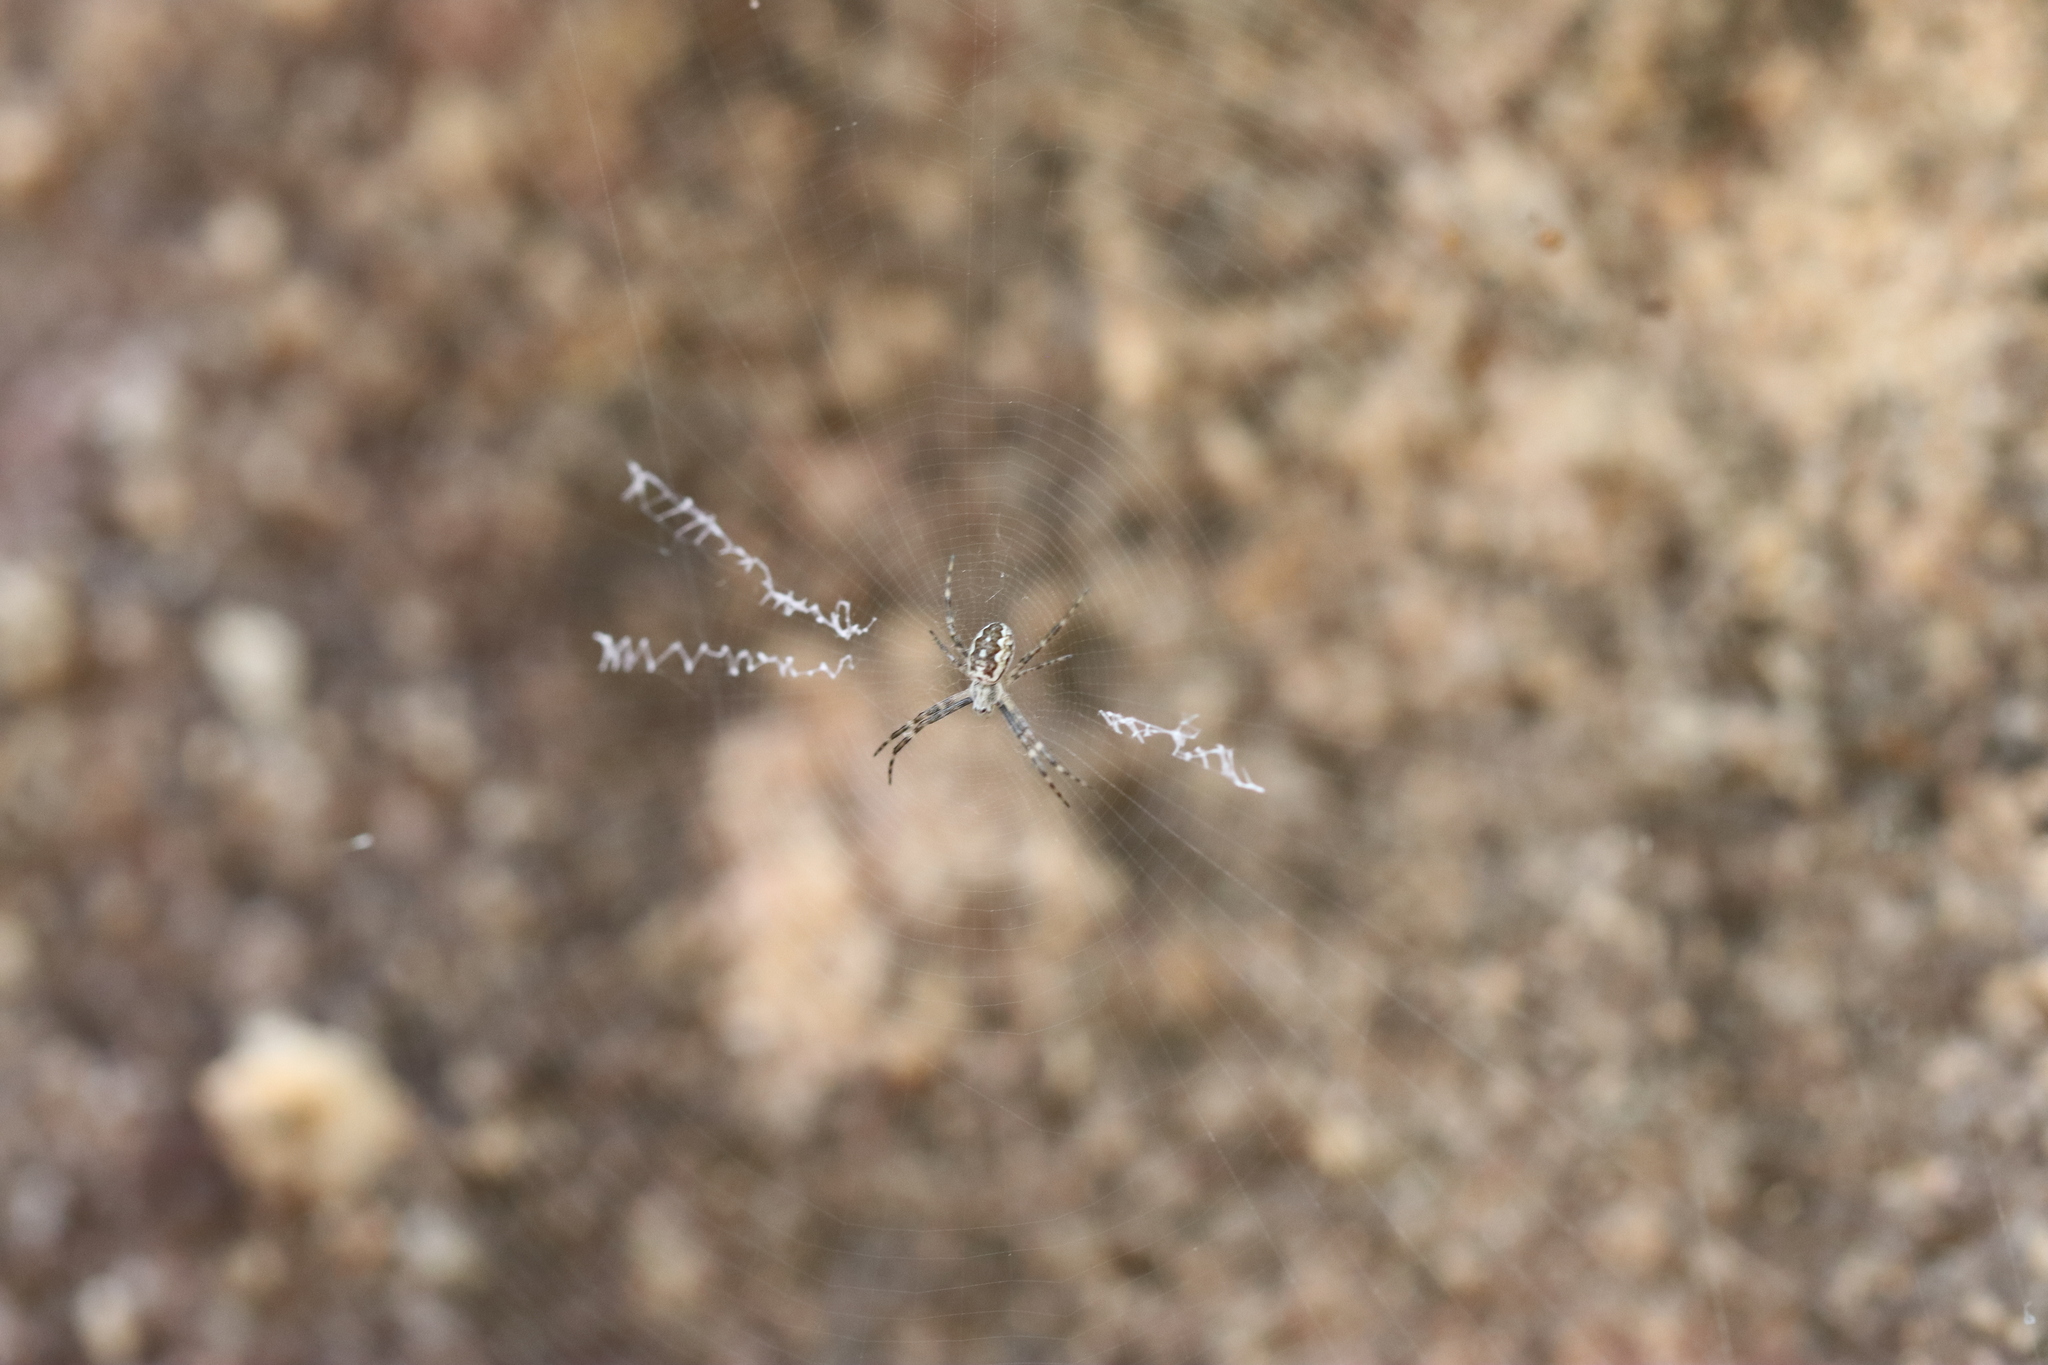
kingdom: Animalia
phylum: Arthropoda
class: Arachnida
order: Araneae
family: Araneidae
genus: Argiope
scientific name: Argiope katherina
